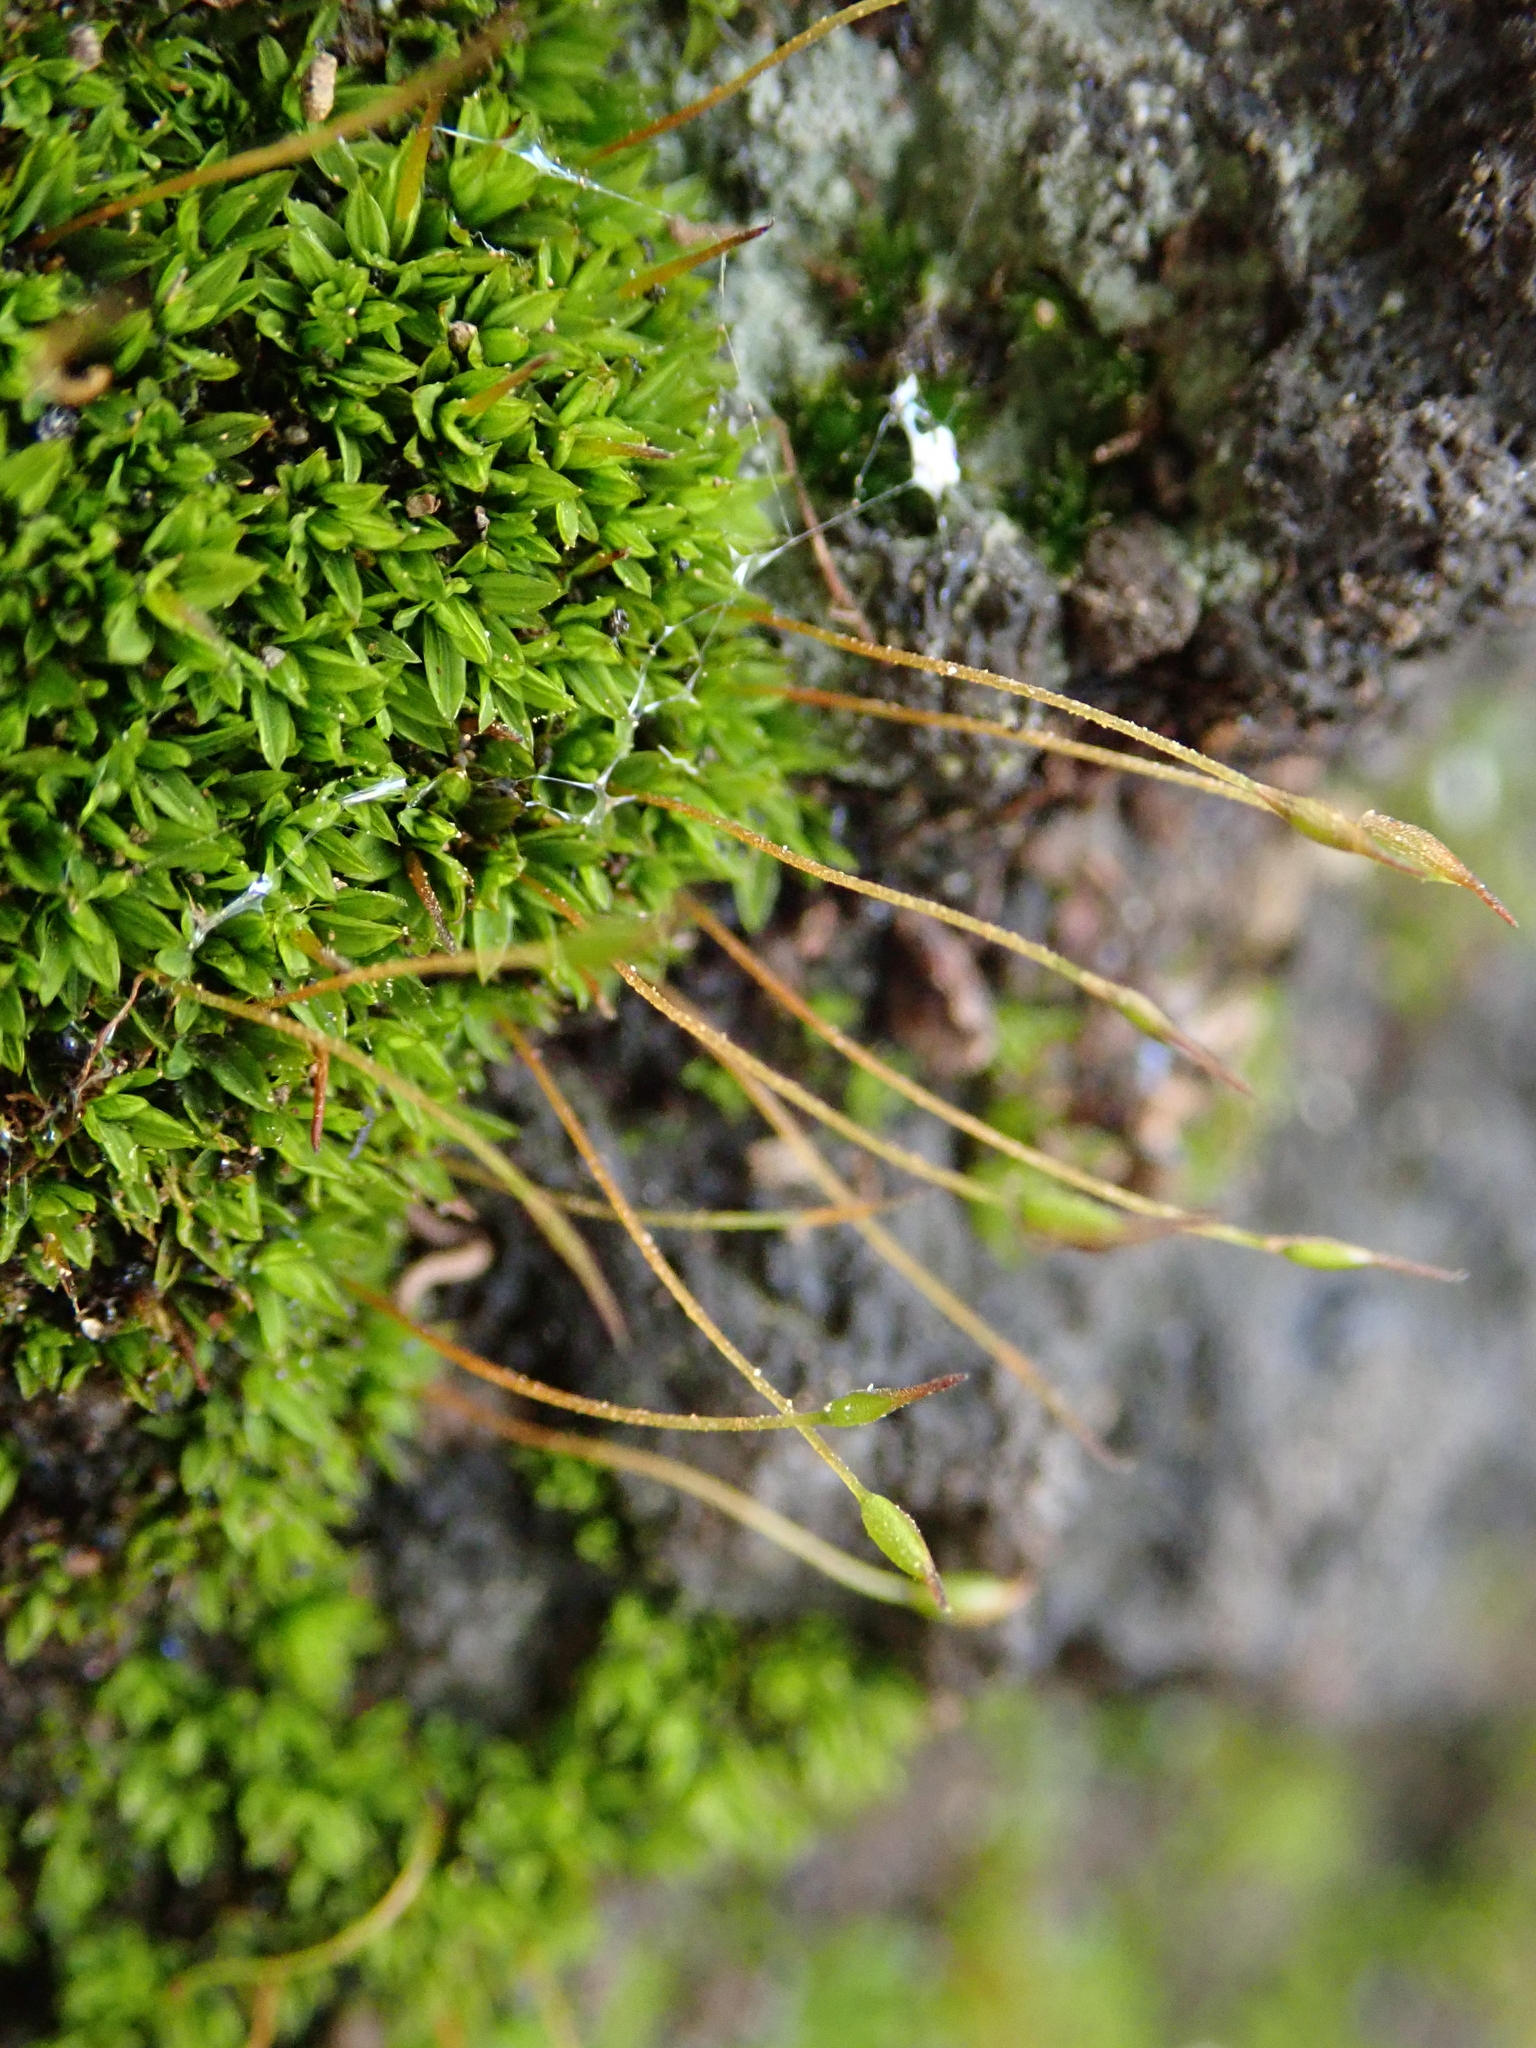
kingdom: Plantae
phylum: Bryophyta
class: Bryopsida
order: Pottiales
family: Pottiaceae
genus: Tortula
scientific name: Tortula atrovirens
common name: Rib-leaf moss
